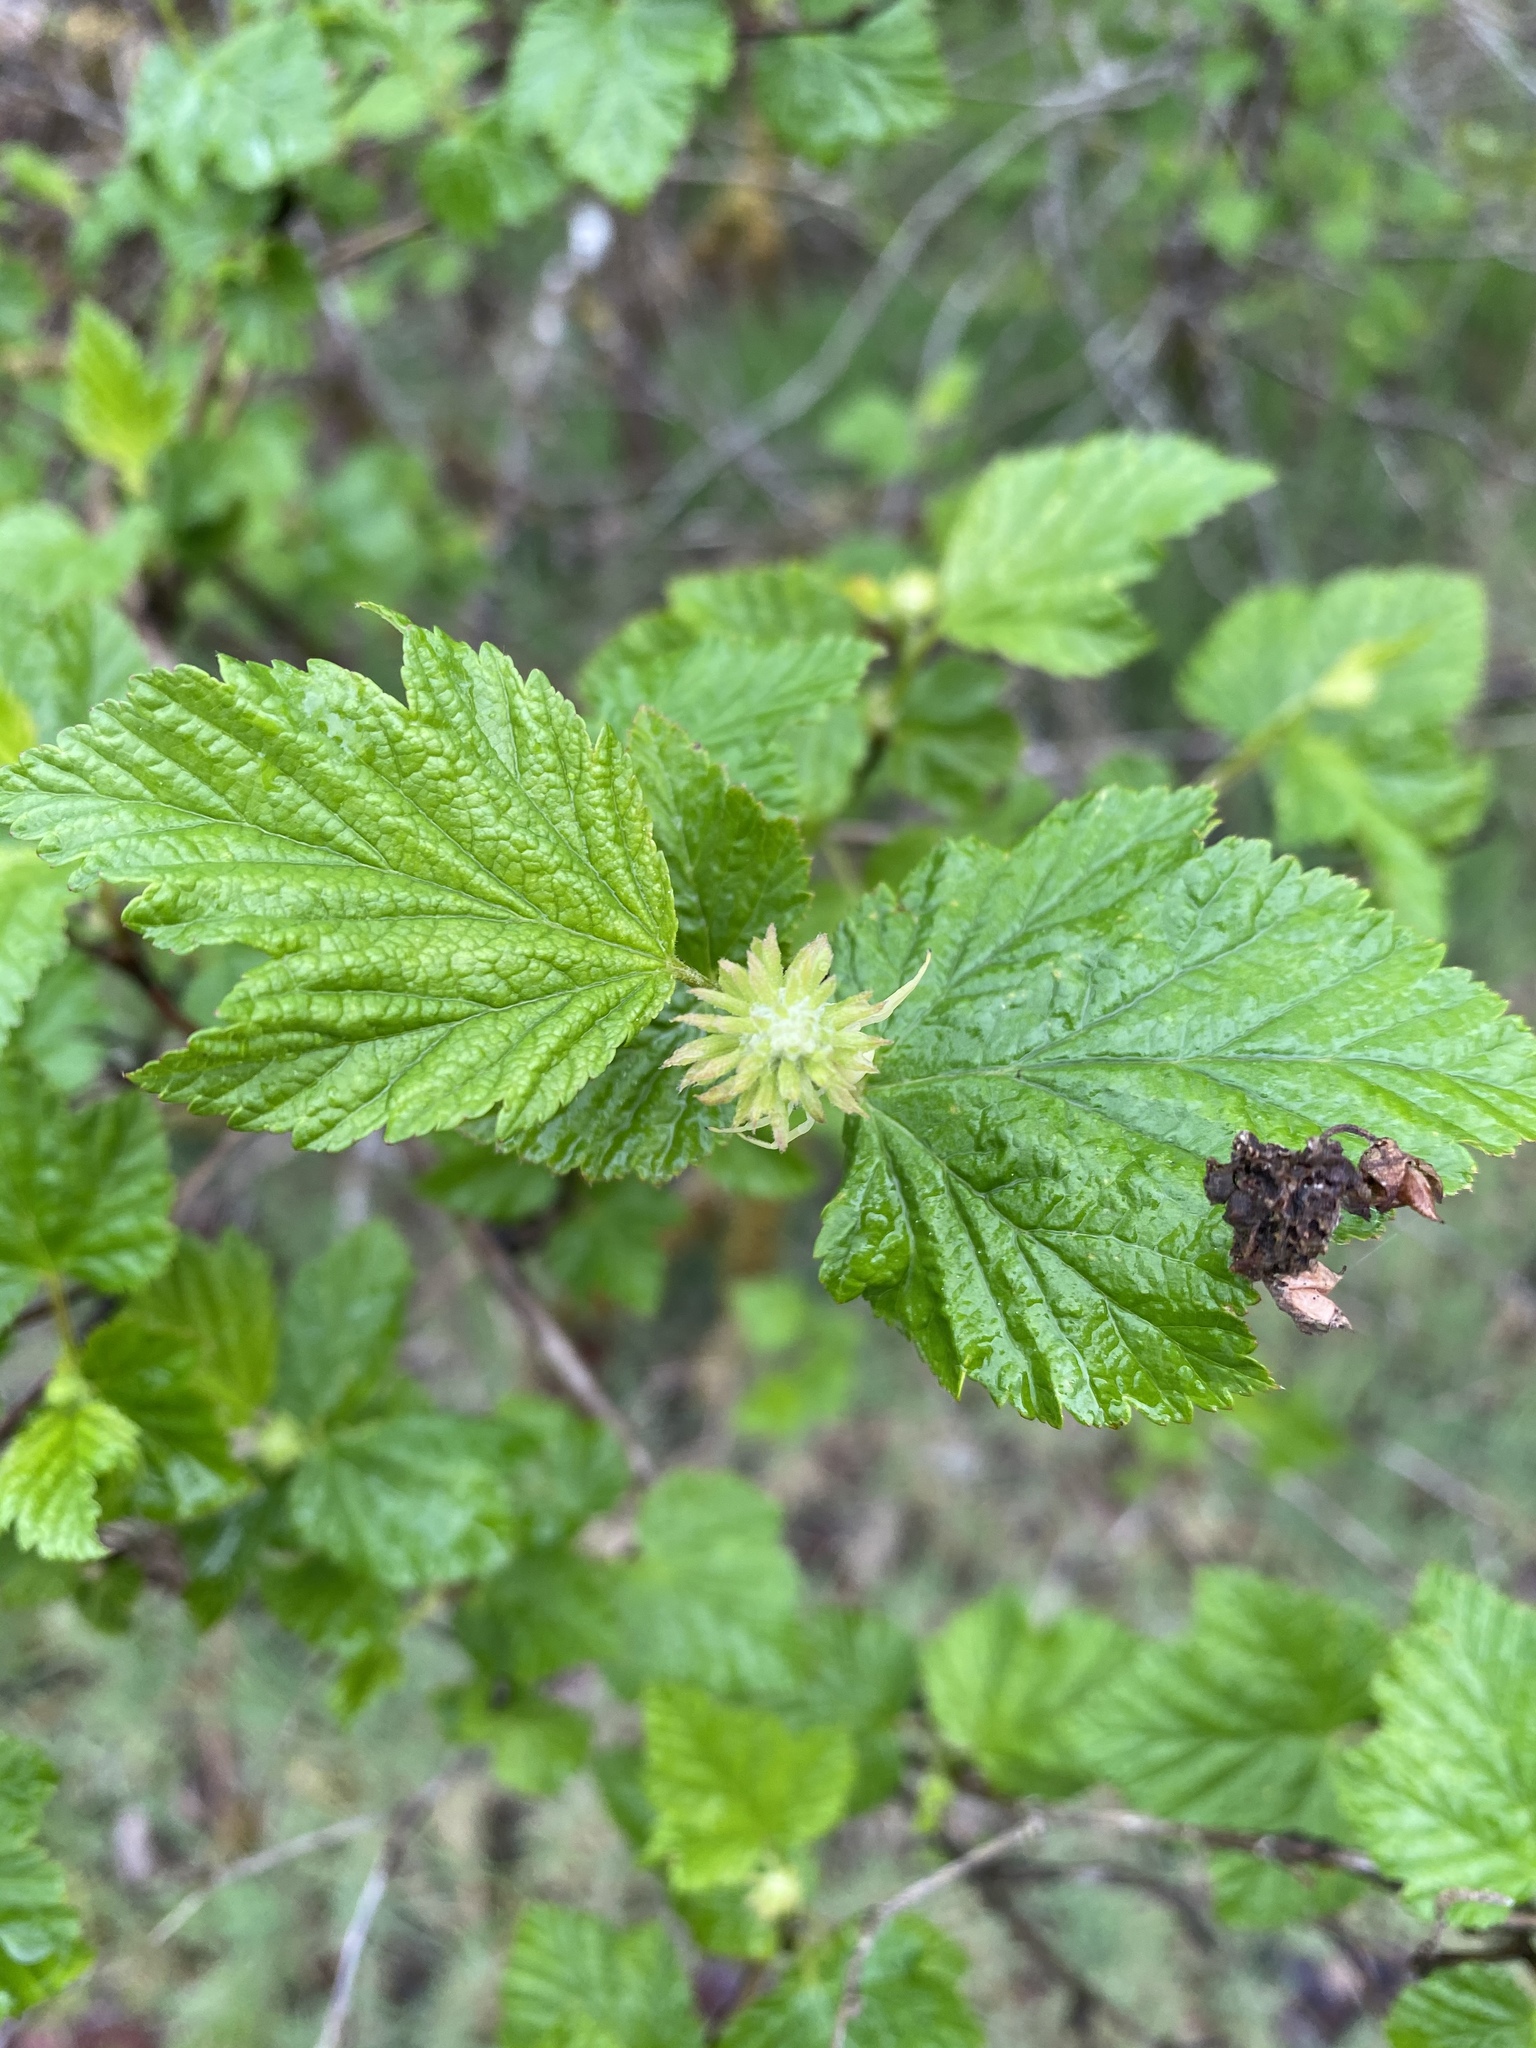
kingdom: Plantae
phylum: Tracheophyta
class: Magnoliopsida
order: Rosales
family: Rosaceae
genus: Physocarpus
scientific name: Physocarpus capitatus
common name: Pacific ninebark
